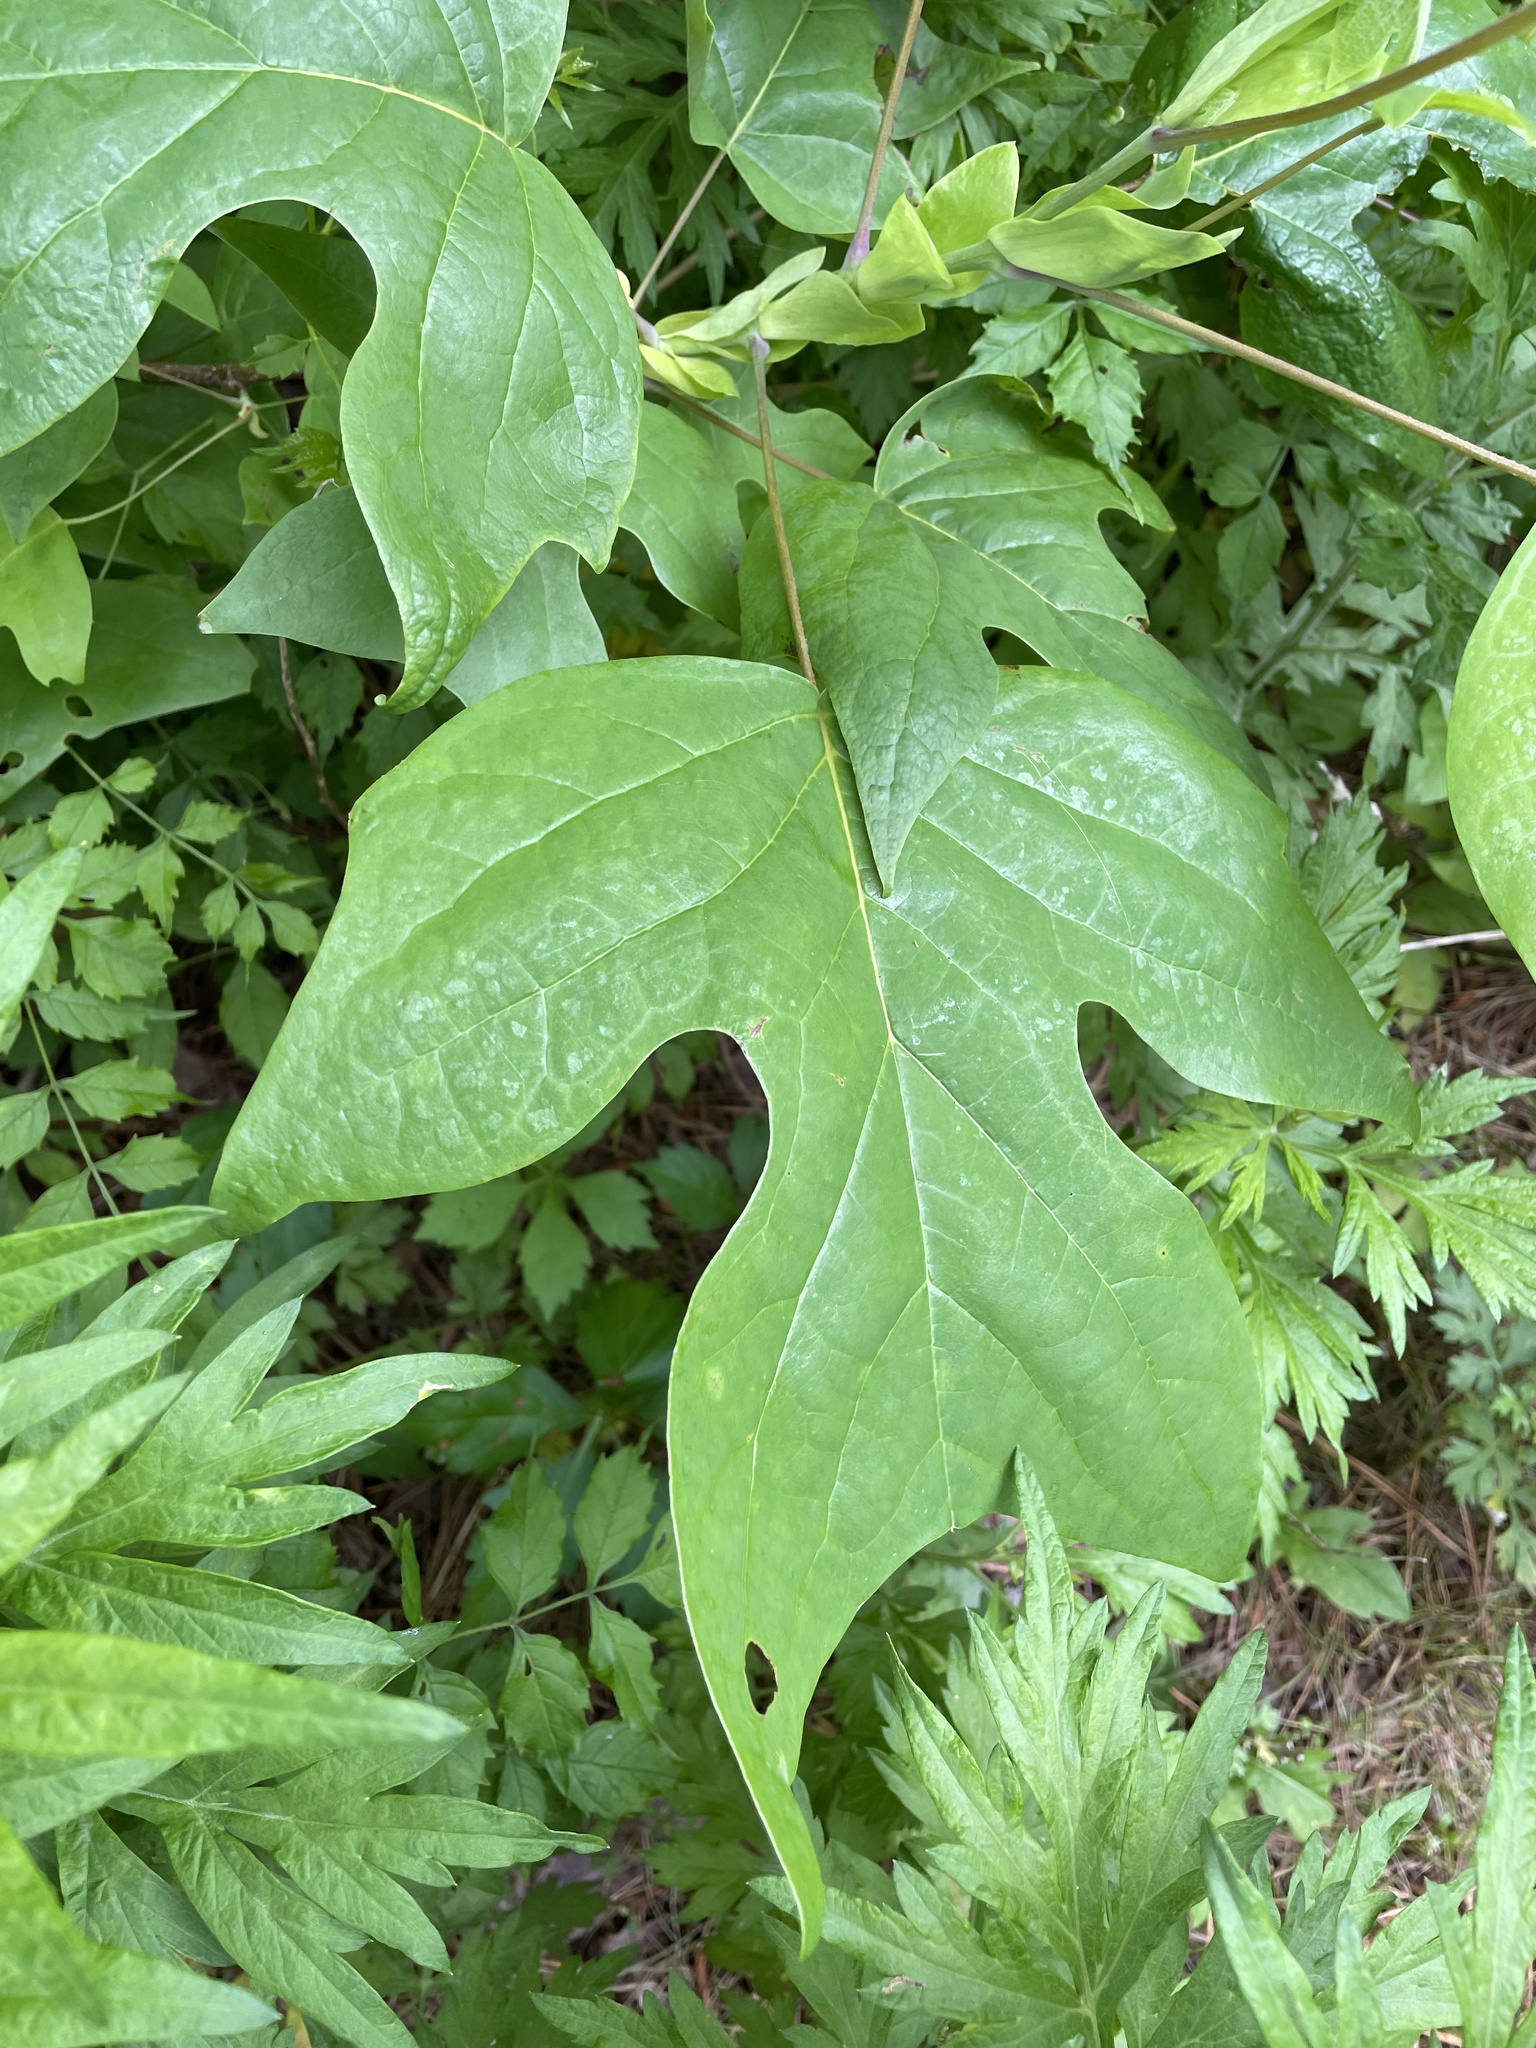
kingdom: Plantae
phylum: Tracheophyta
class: Magnoliopsida
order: Magnoliales
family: Magnoliaceae
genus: Liriodendron
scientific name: Liriodendron tulipifera
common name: Tulip tree
